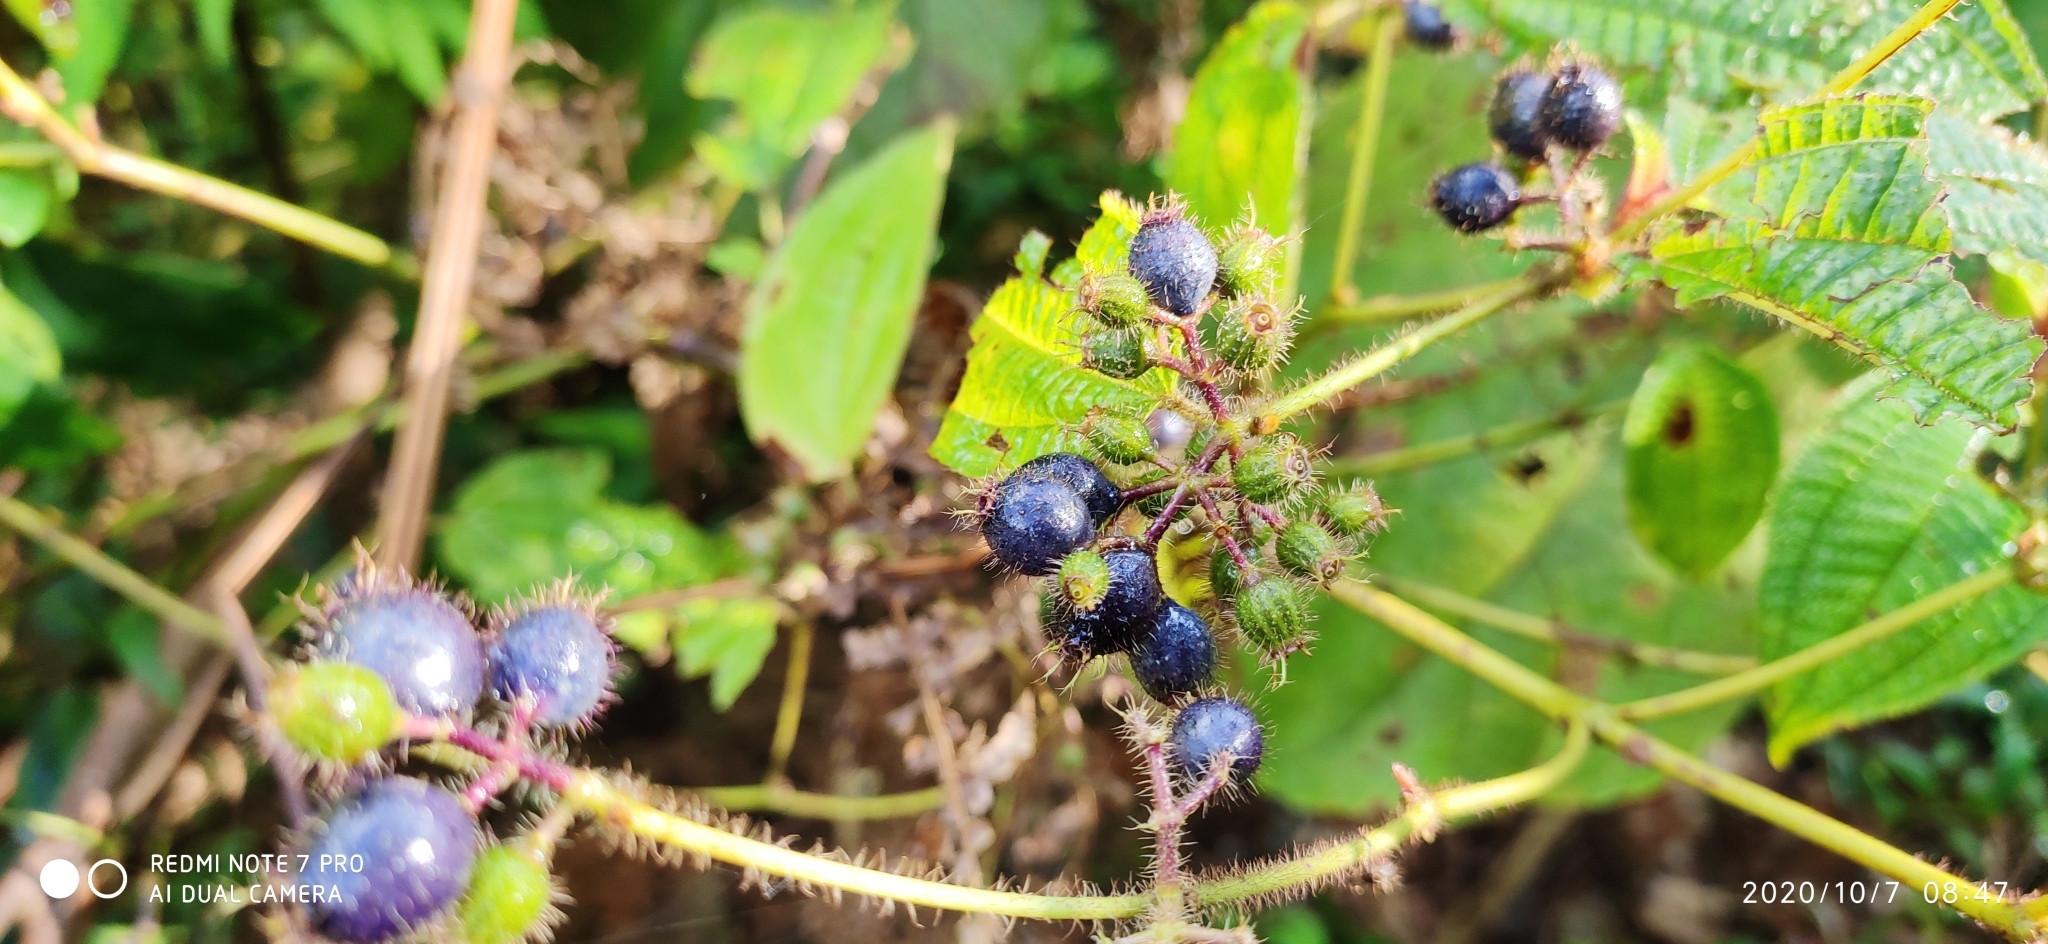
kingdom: Plantae
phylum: Tracheophyta
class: Magnoliopsida
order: Ericales
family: Balsaminaceae
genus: Impatiens
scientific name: Impatiens verticillata
